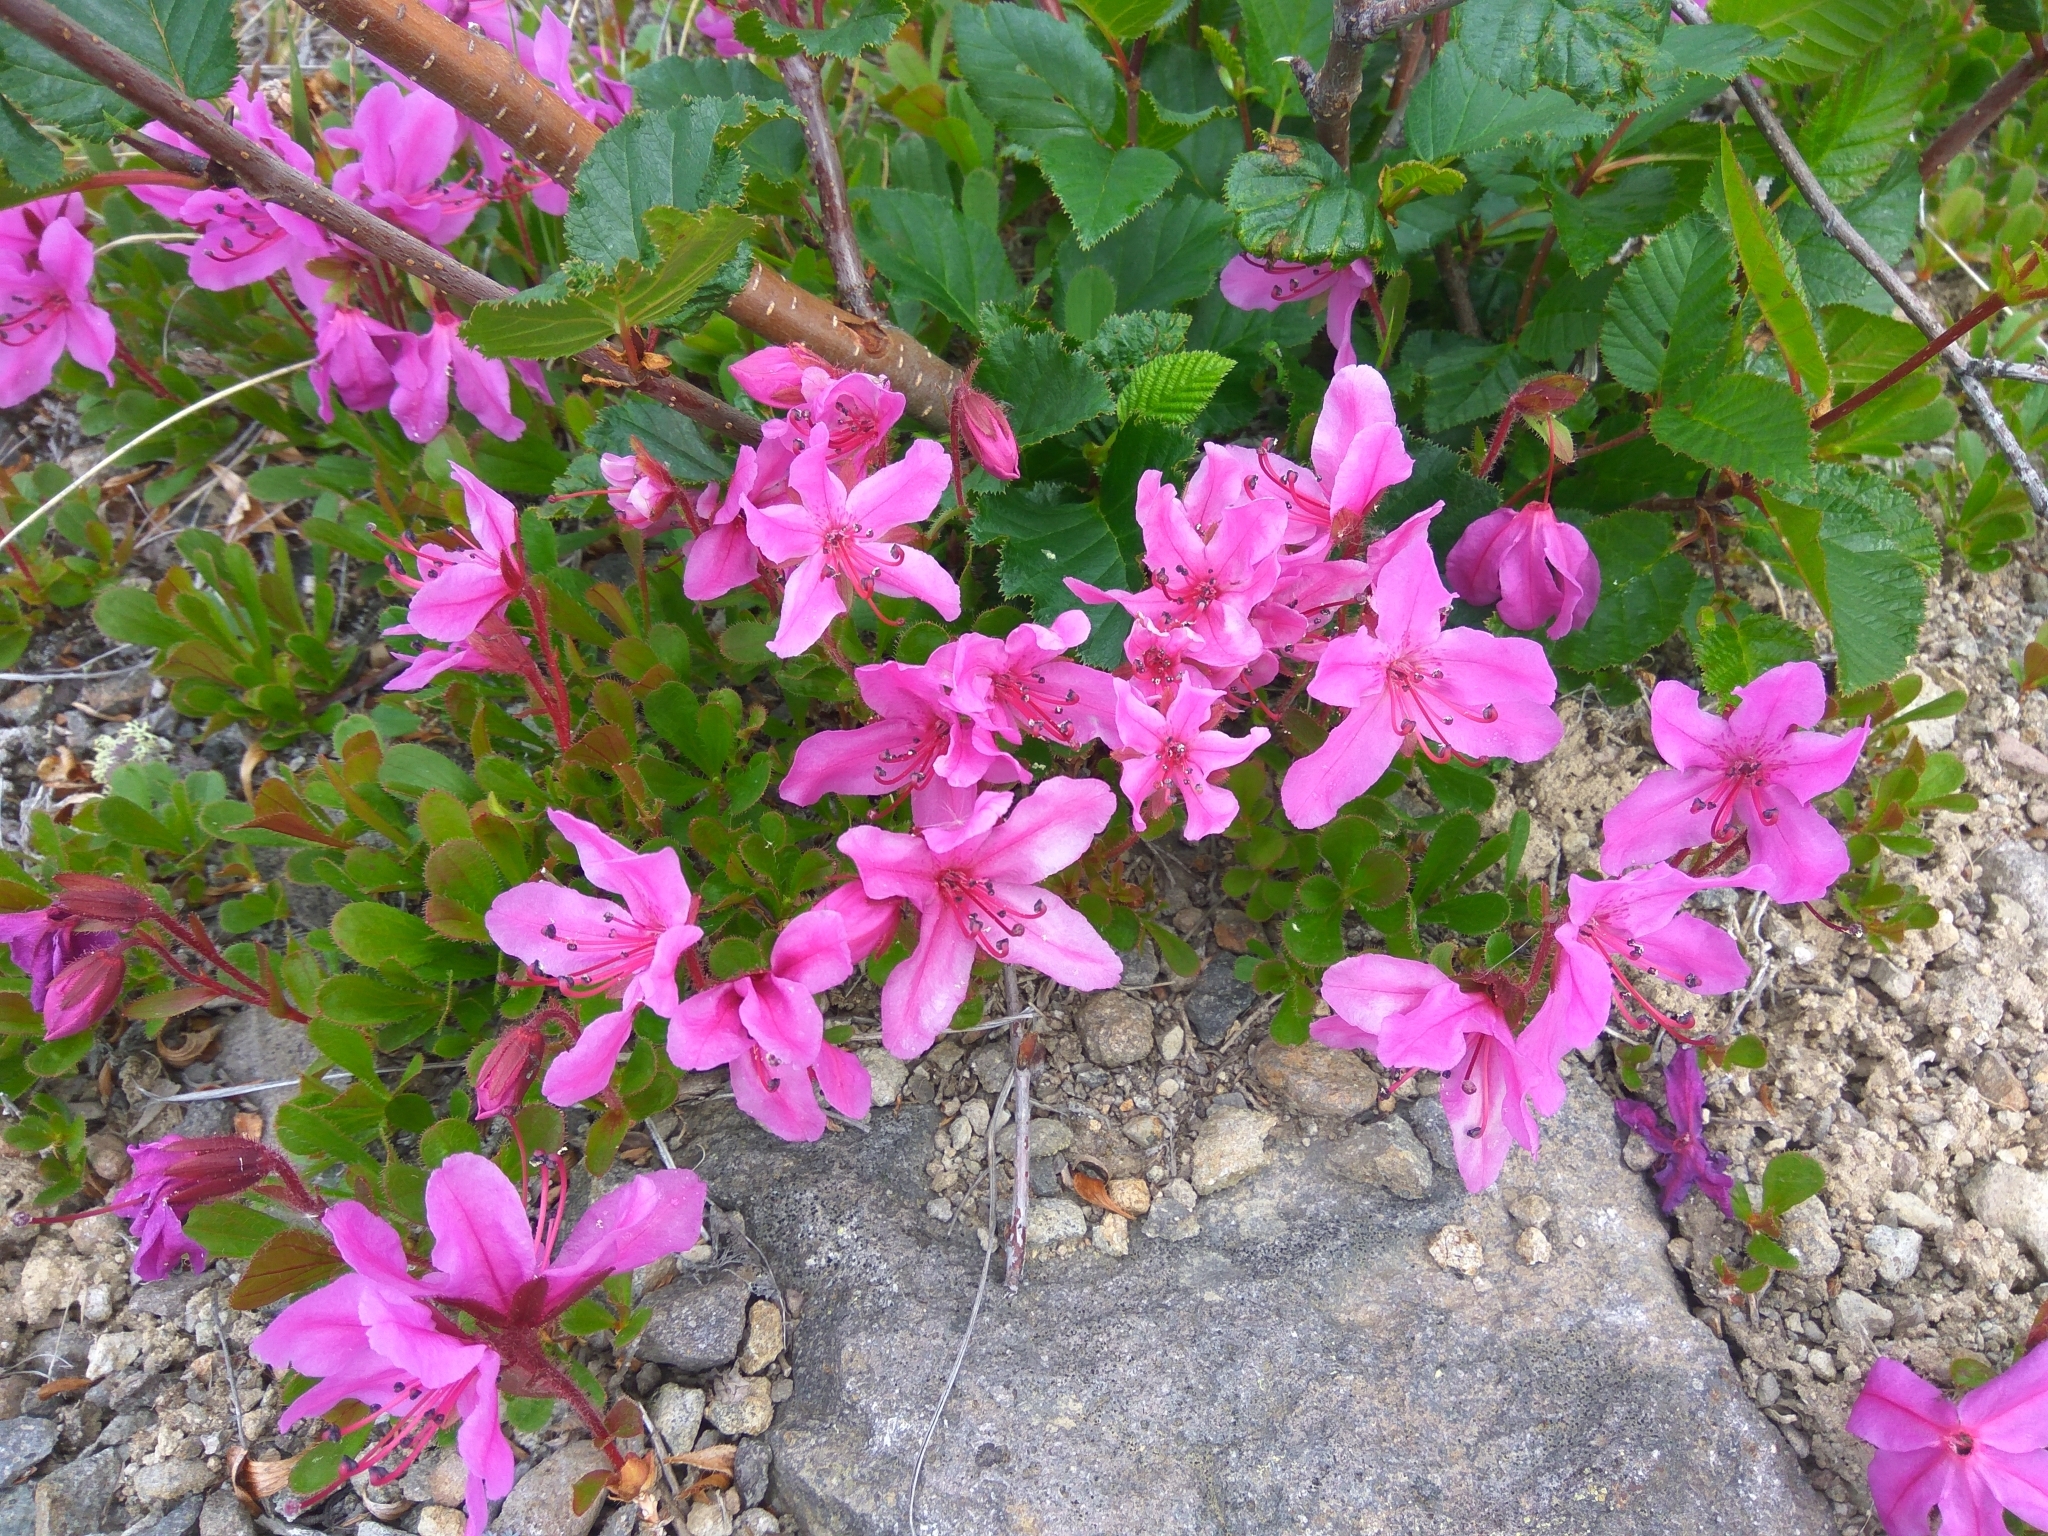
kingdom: Plantae
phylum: Tracheophyta
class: Magnoliopsida
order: Ericales
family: Ericaceae
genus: Rhododendron
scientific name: Rhododendron camtschaticum
